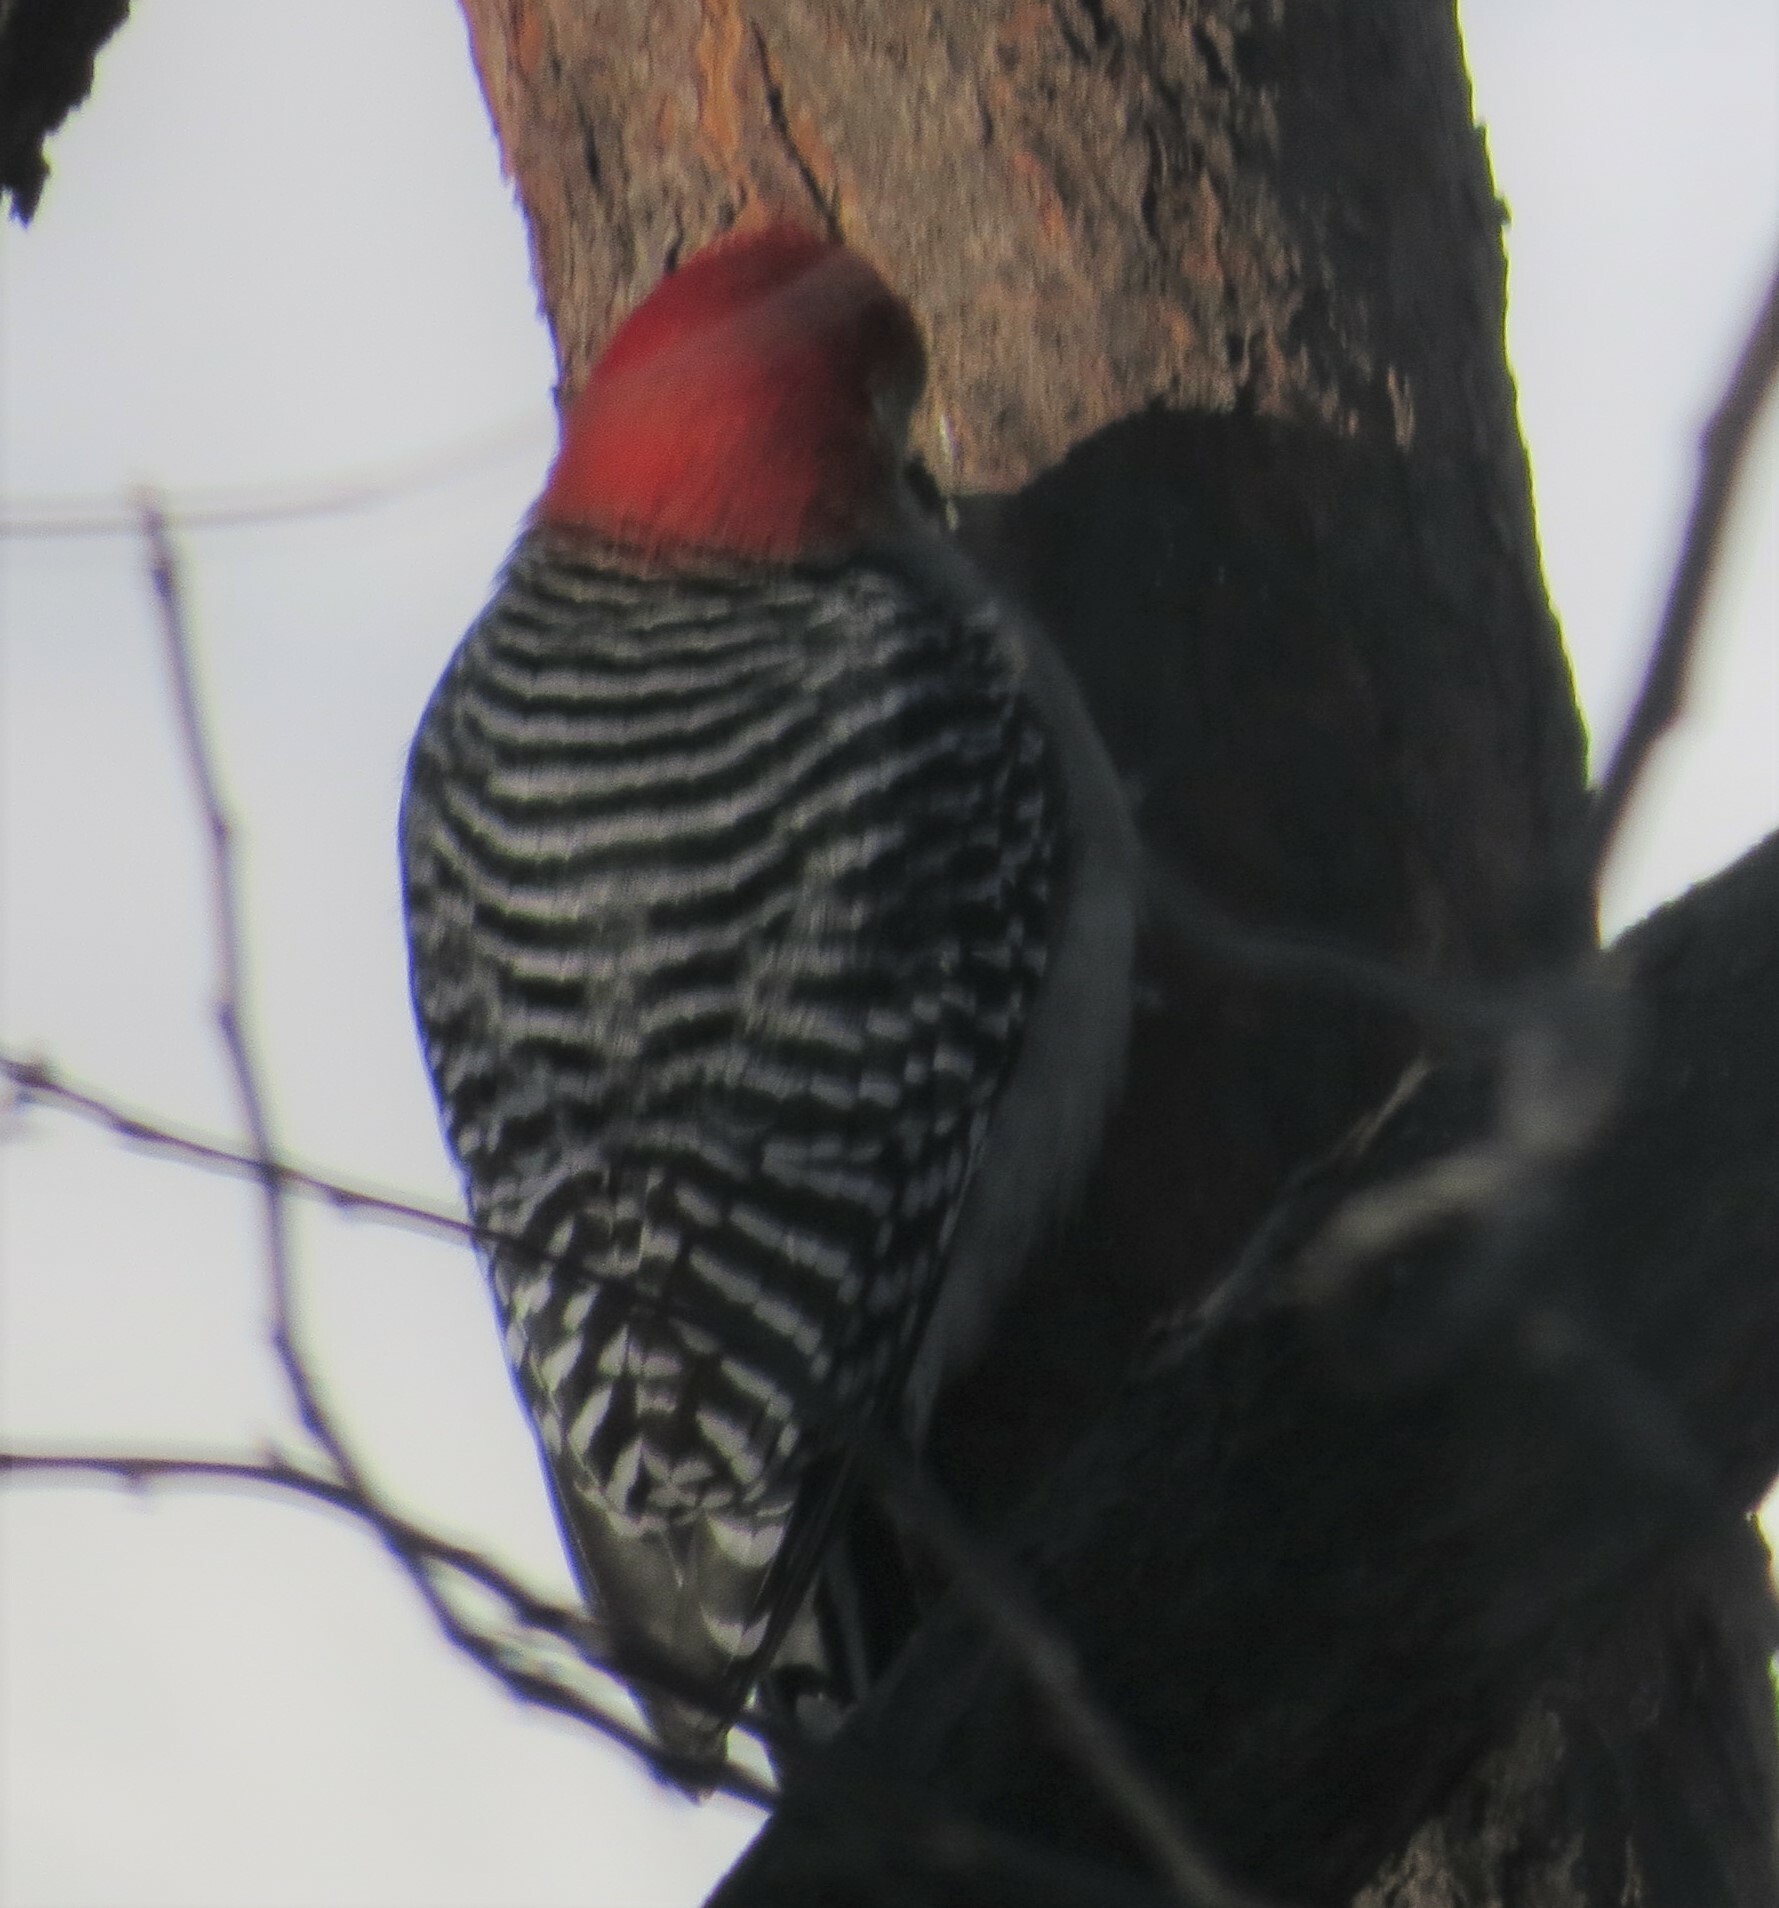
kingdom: Animalia
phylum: Chordata
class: Aves
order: Piciformes
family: Picidae
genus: Melanerpes
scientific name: Melanerpes carolinus
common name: Red-bellied woodpecker
